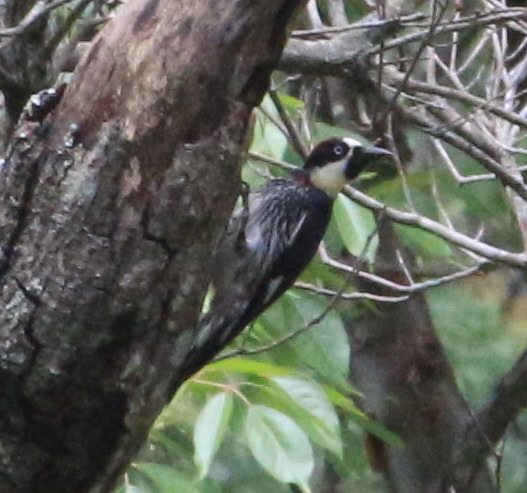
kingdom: Animalia
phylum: Chordata
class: Aves
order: Piciformes
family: Picidae
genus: Melanerpes
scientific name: Melanerpes formicivorus
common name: Acorn woodpecker
